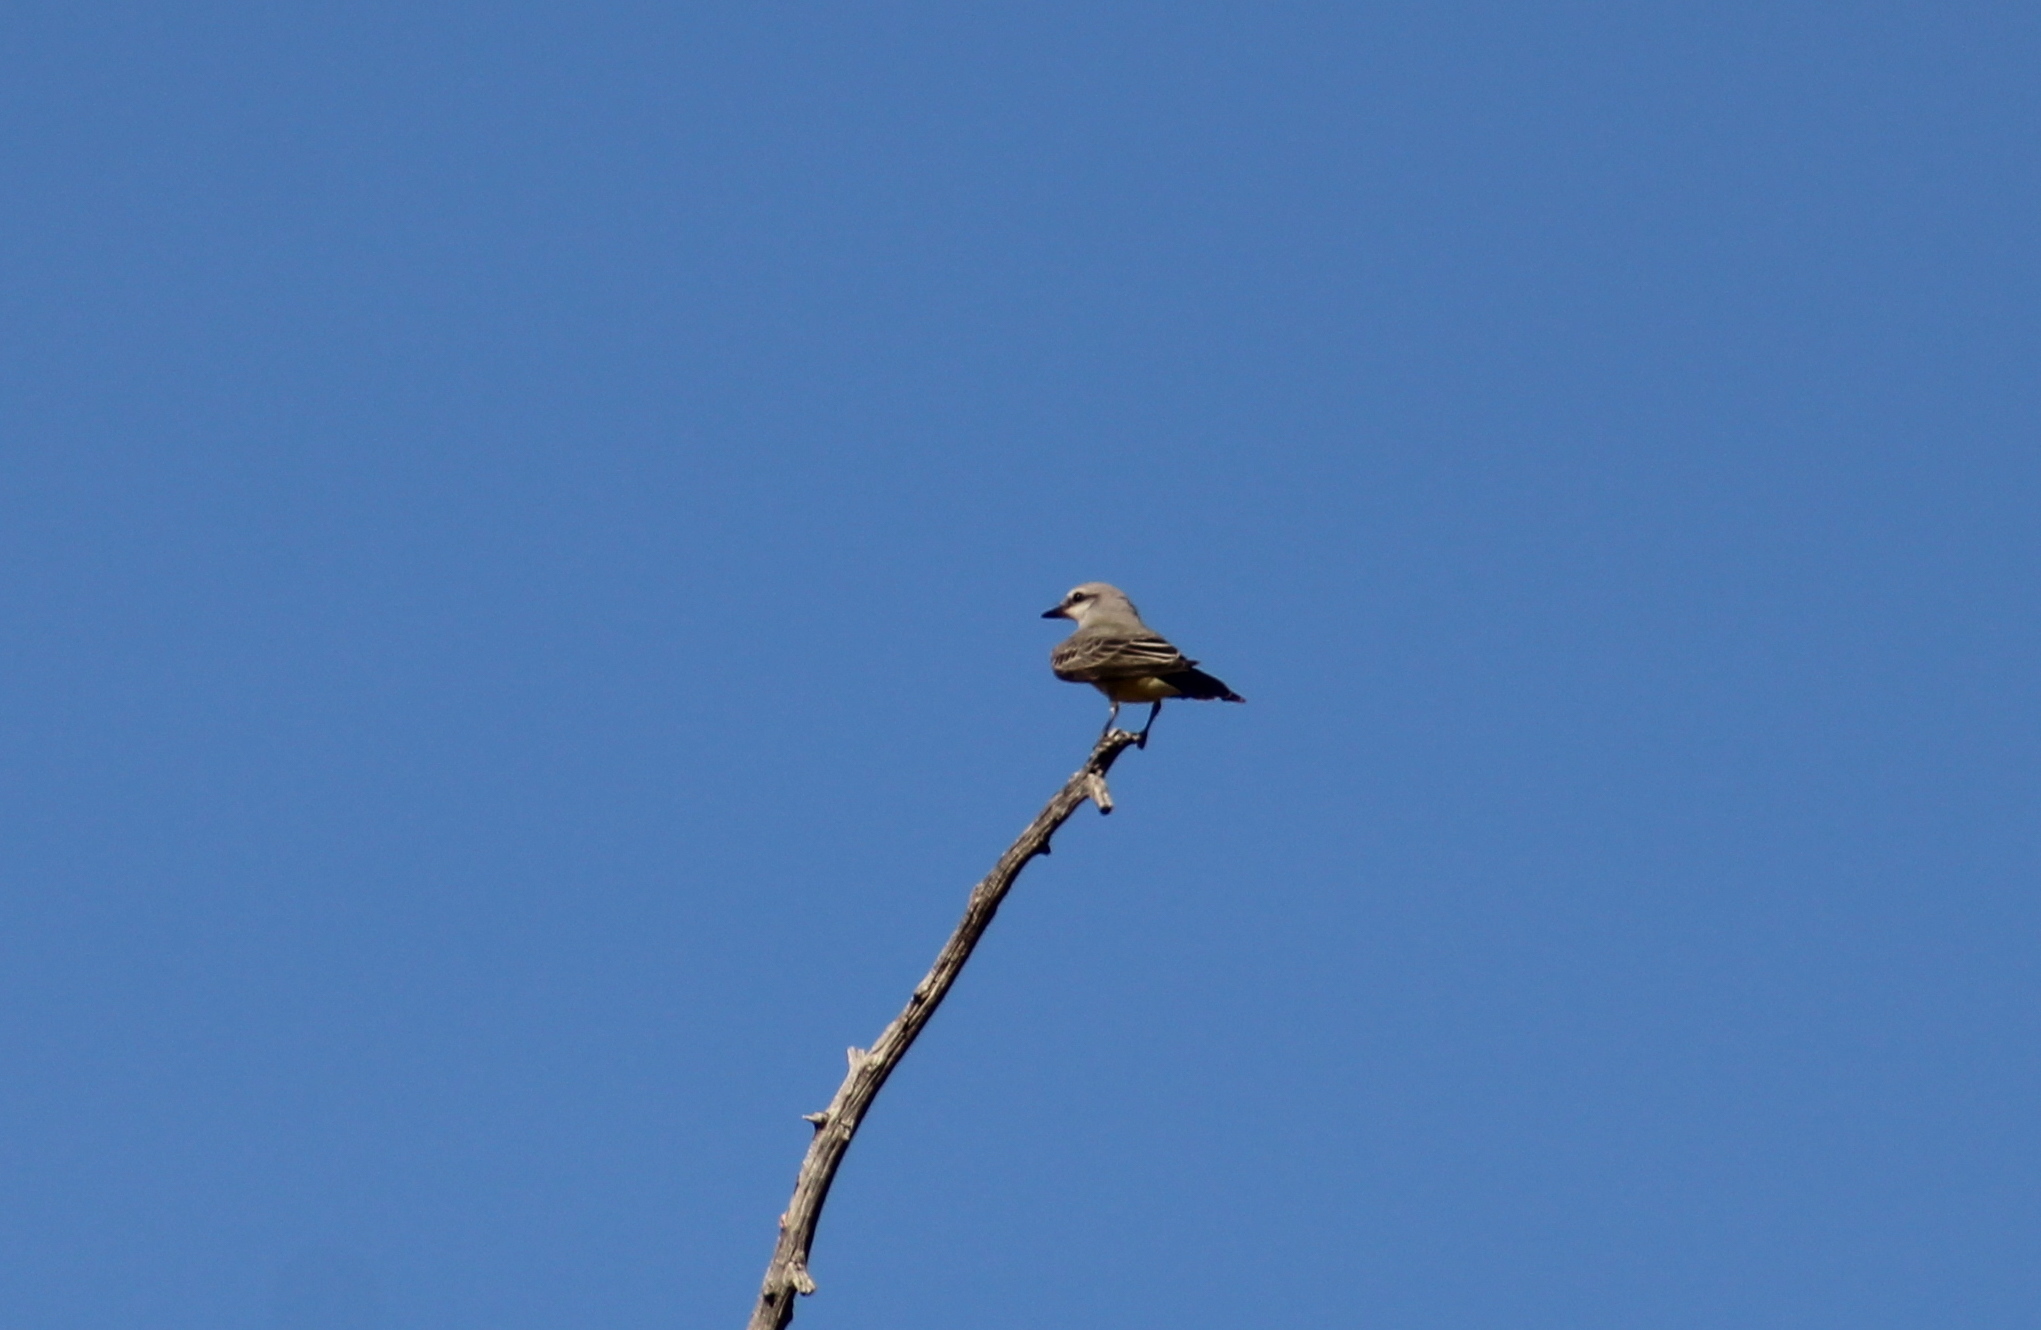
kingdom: Animalia
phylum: Chordata
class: Aves
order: Passeriformes
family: Tyrannidae
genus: Tyrannus
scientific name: Tyrannus verticalis
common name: Western kingbird
